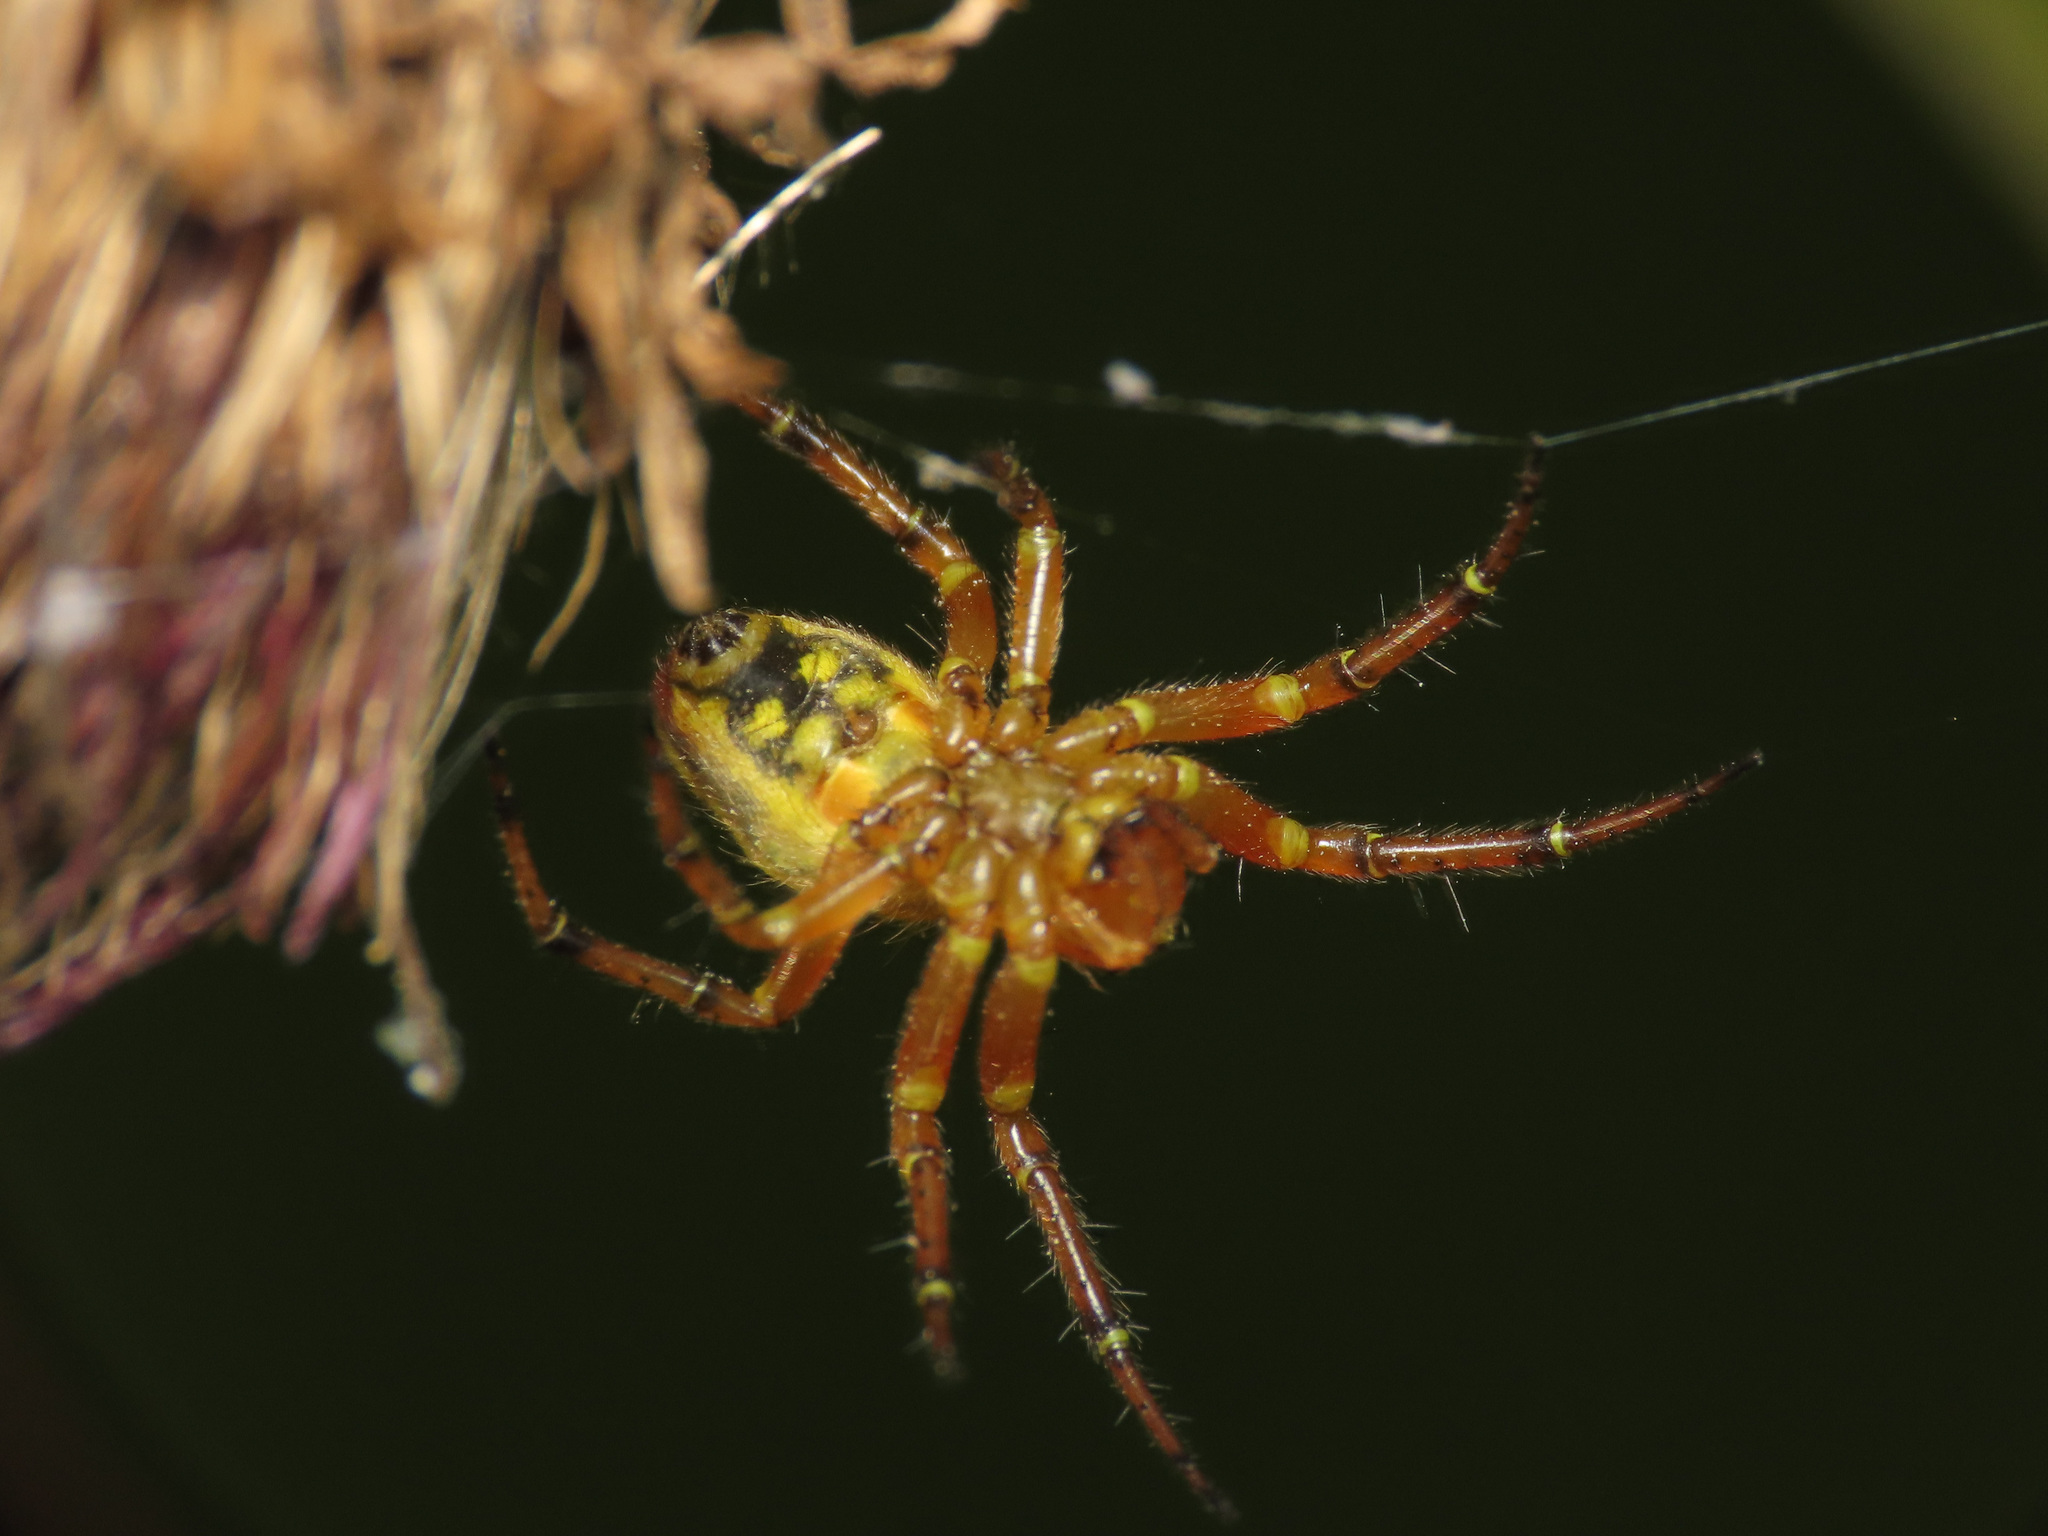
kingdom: Animalia
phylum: Arthropoda
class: Arachnida
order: Araneae
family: Araneidae
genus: Araniella
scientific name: Araniella alpica
